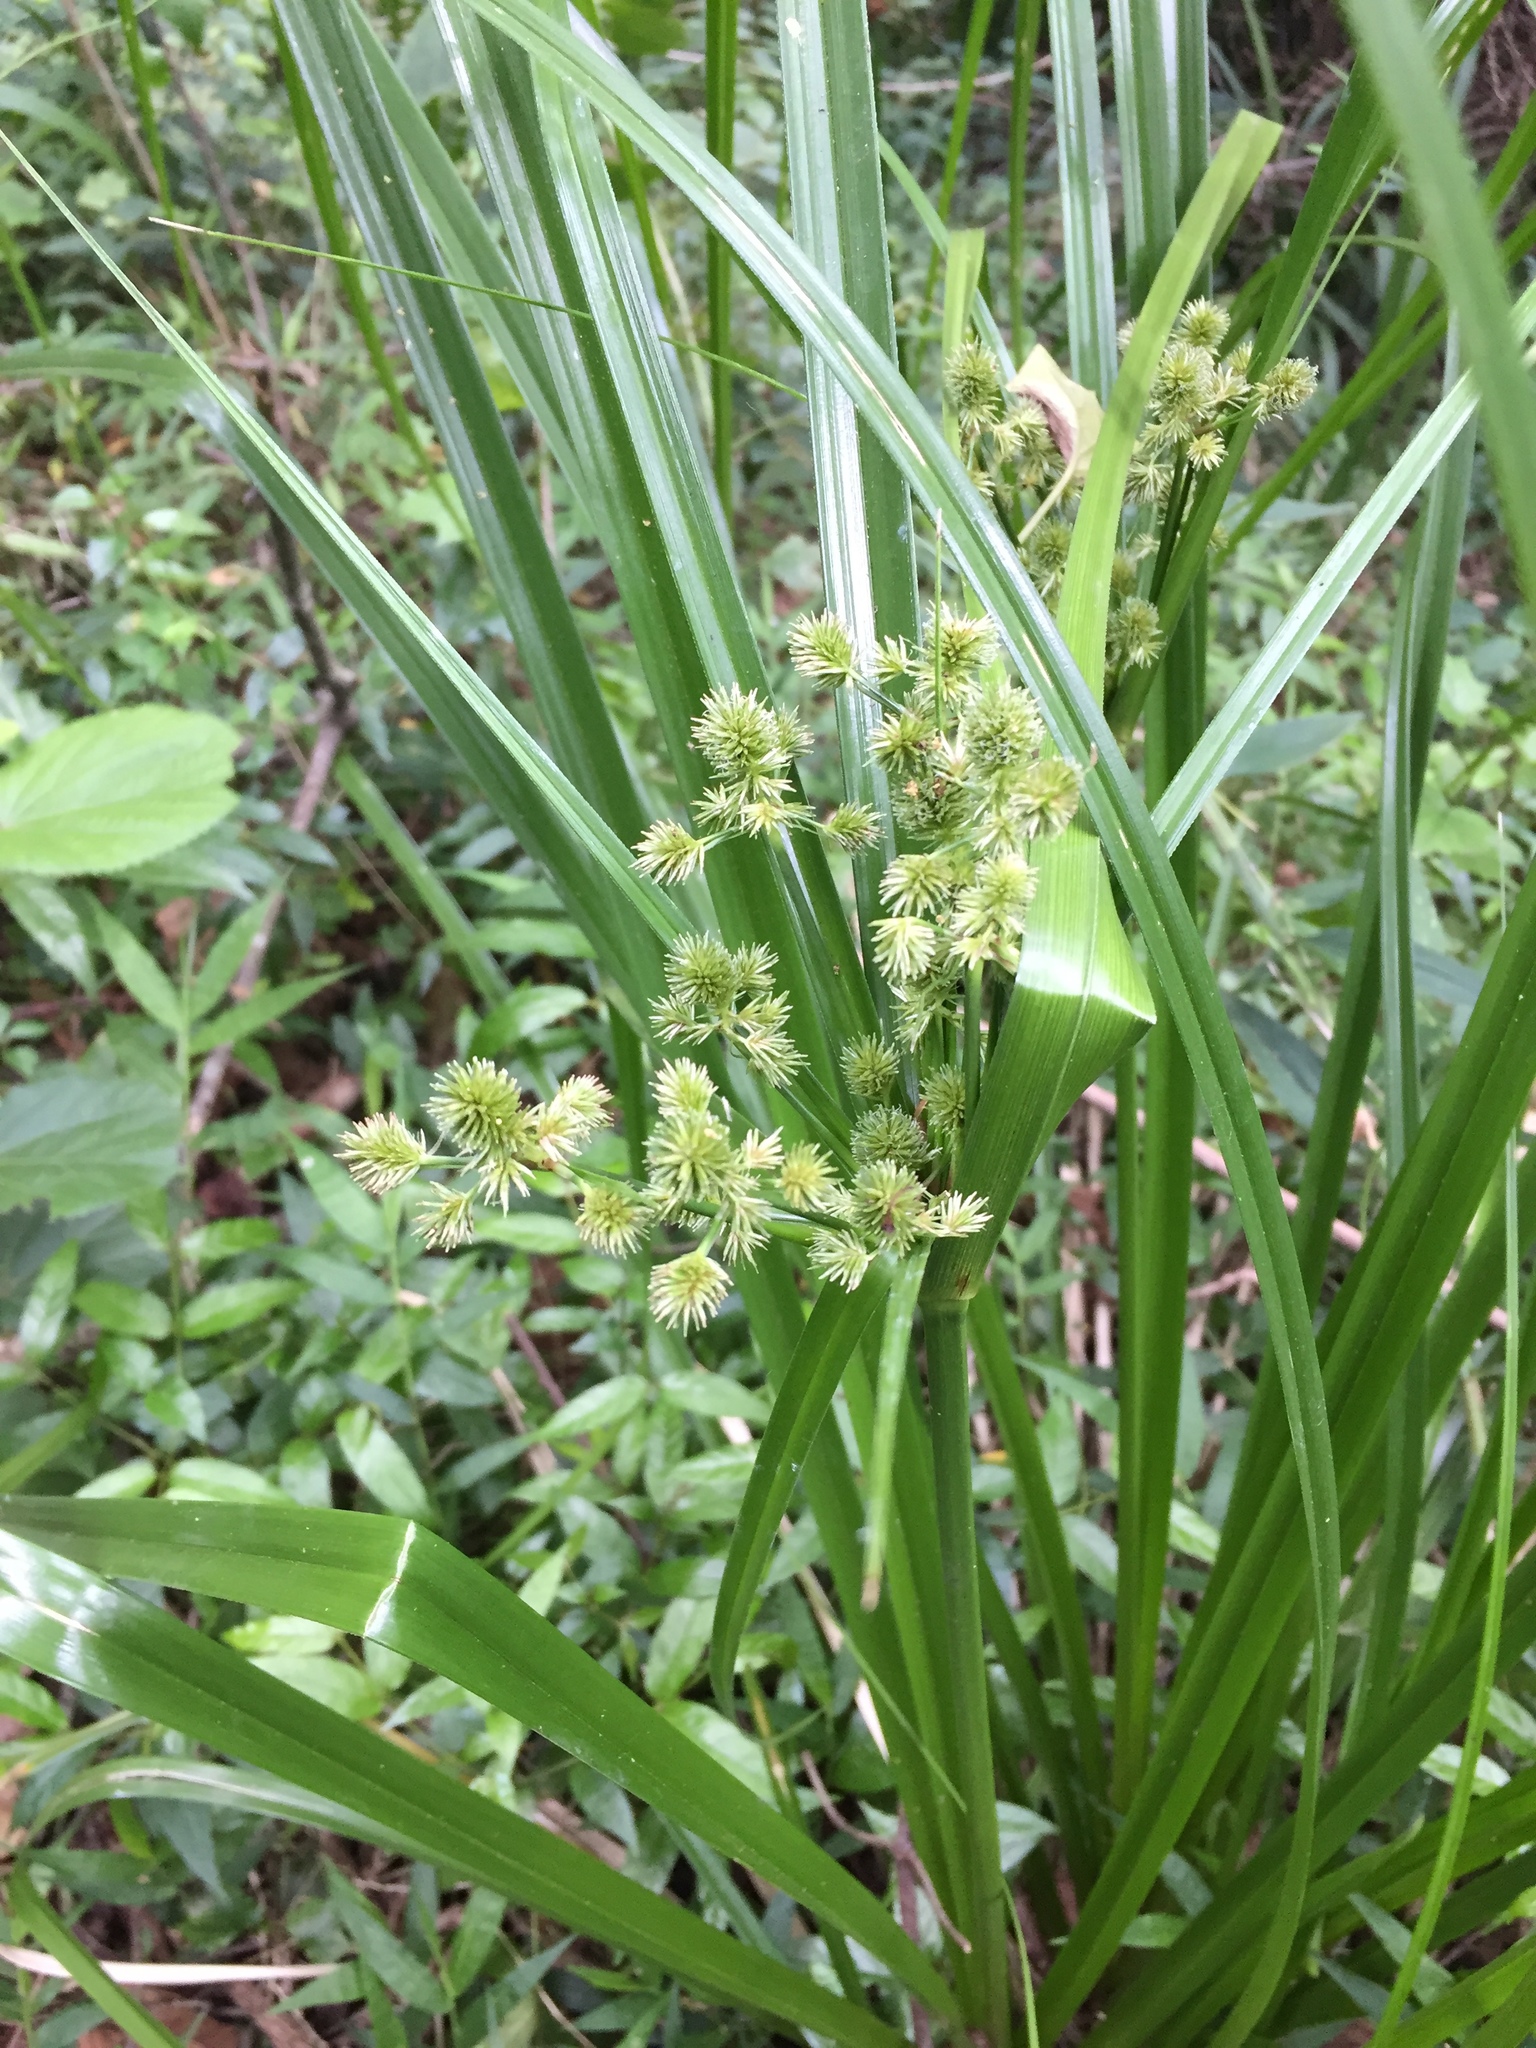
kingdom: Plantae
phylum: Tracheophyta
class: Liliopsida
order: Poales
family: Cyperaceae
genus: Cyperus
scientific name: Cyperus solidus
